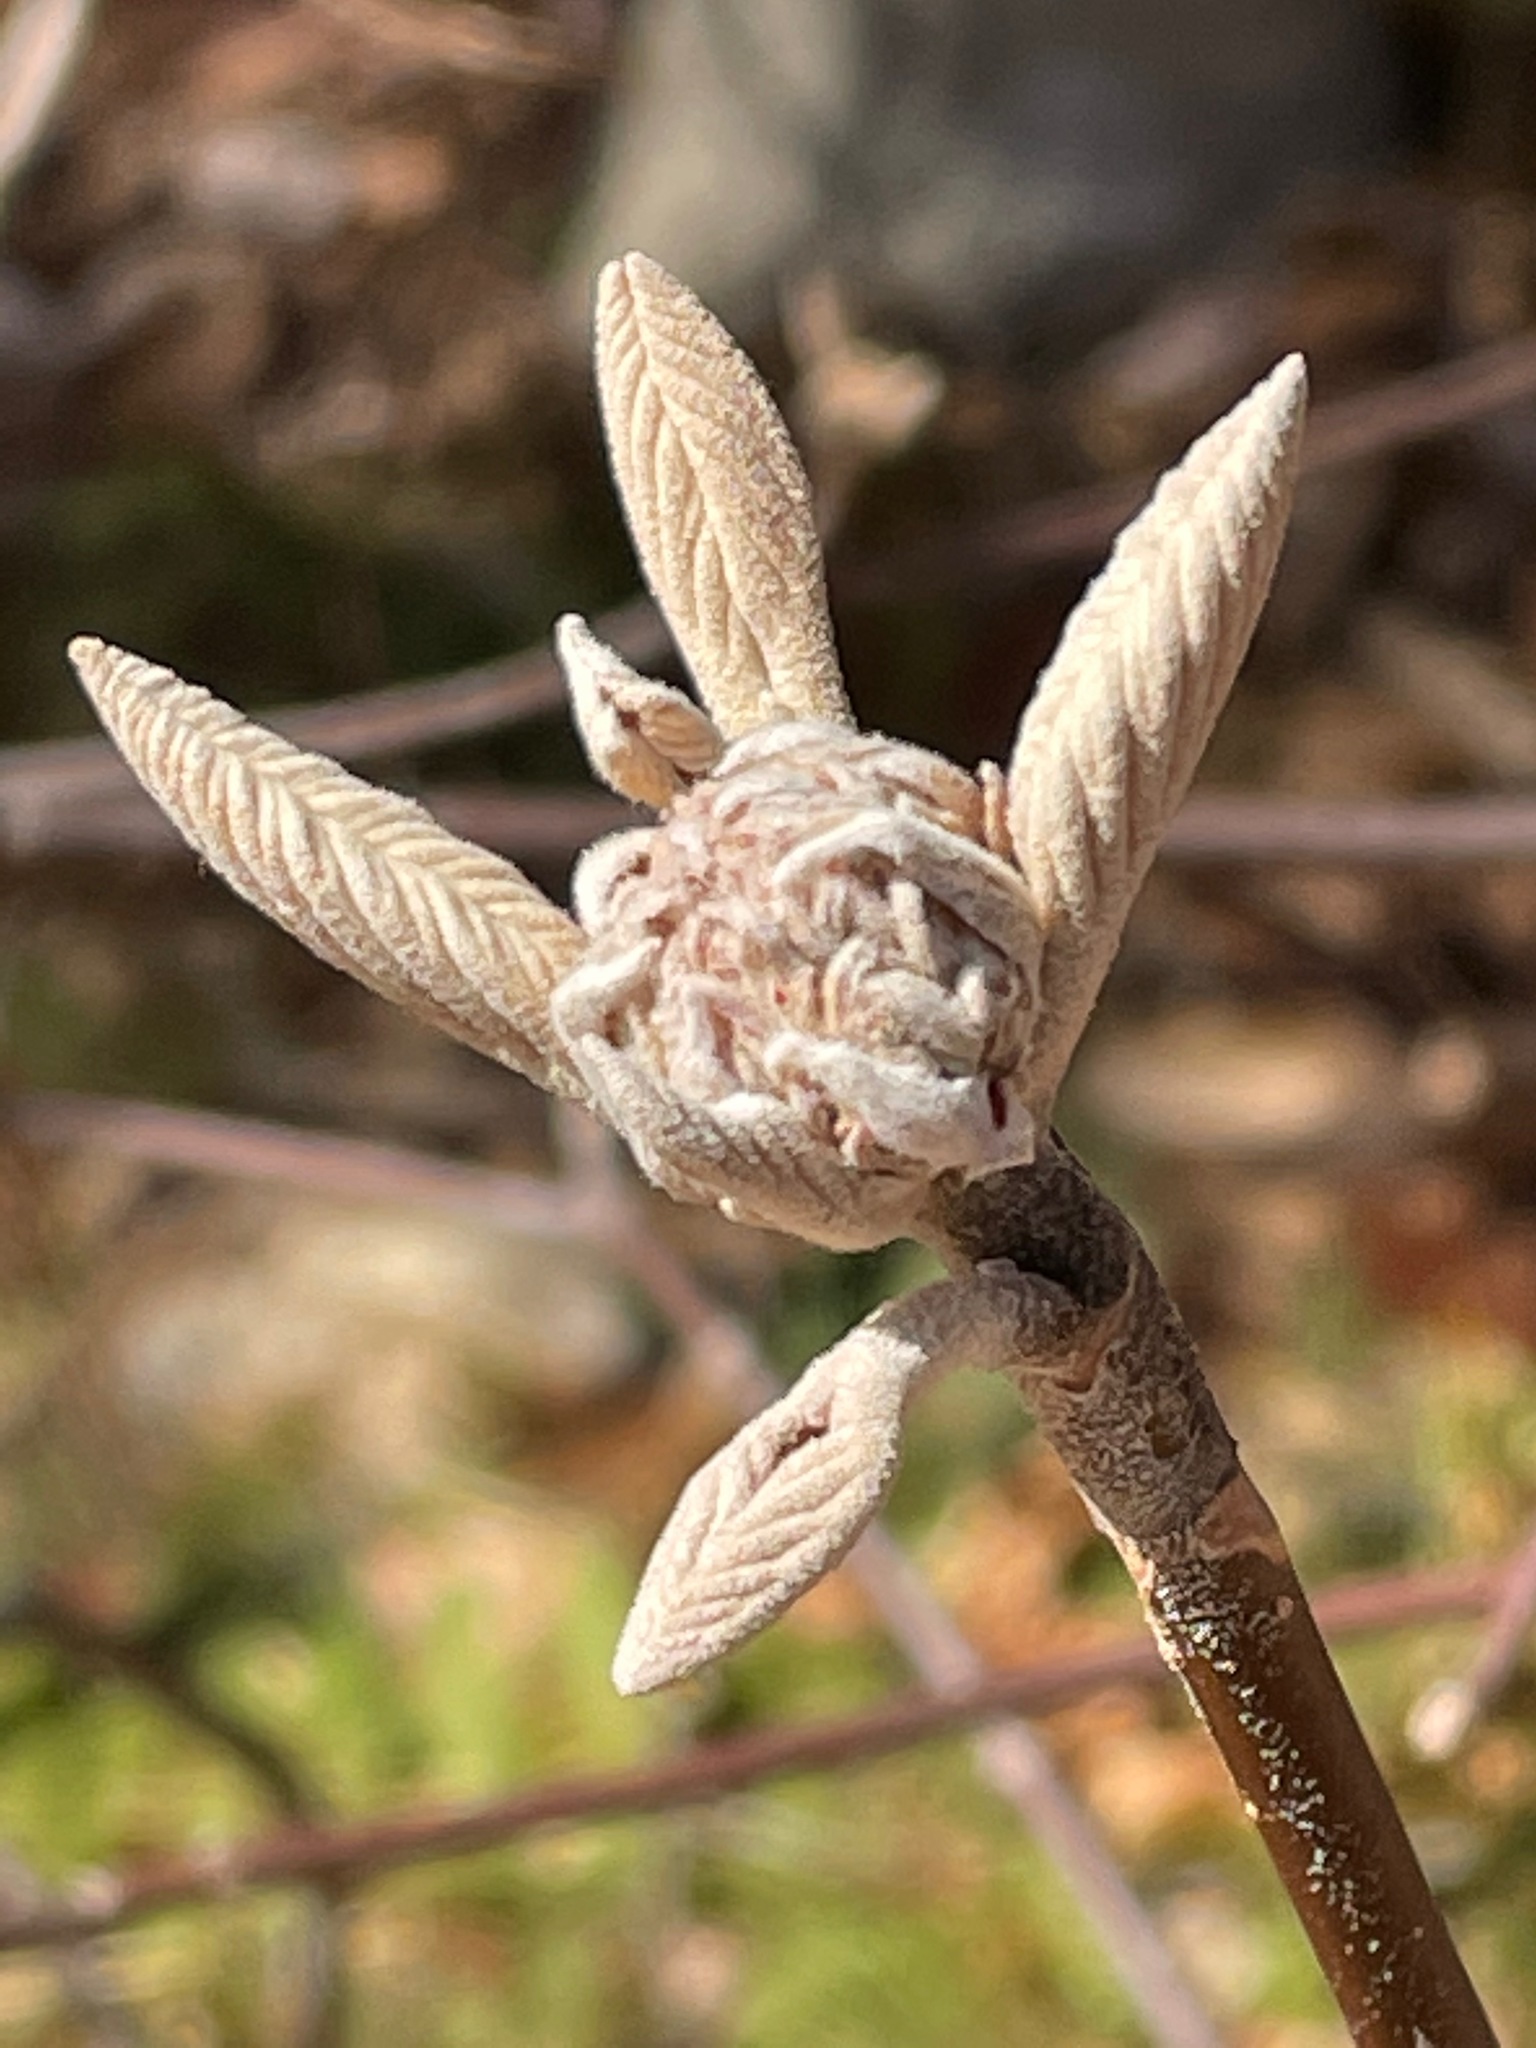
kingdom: Plantae
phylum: Tracheophyta
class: Magnoliopsida
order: Dipsacales
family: Viburnaceae
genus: Viburnum
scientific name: Viburnum lantanoides
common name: Hobblebush
